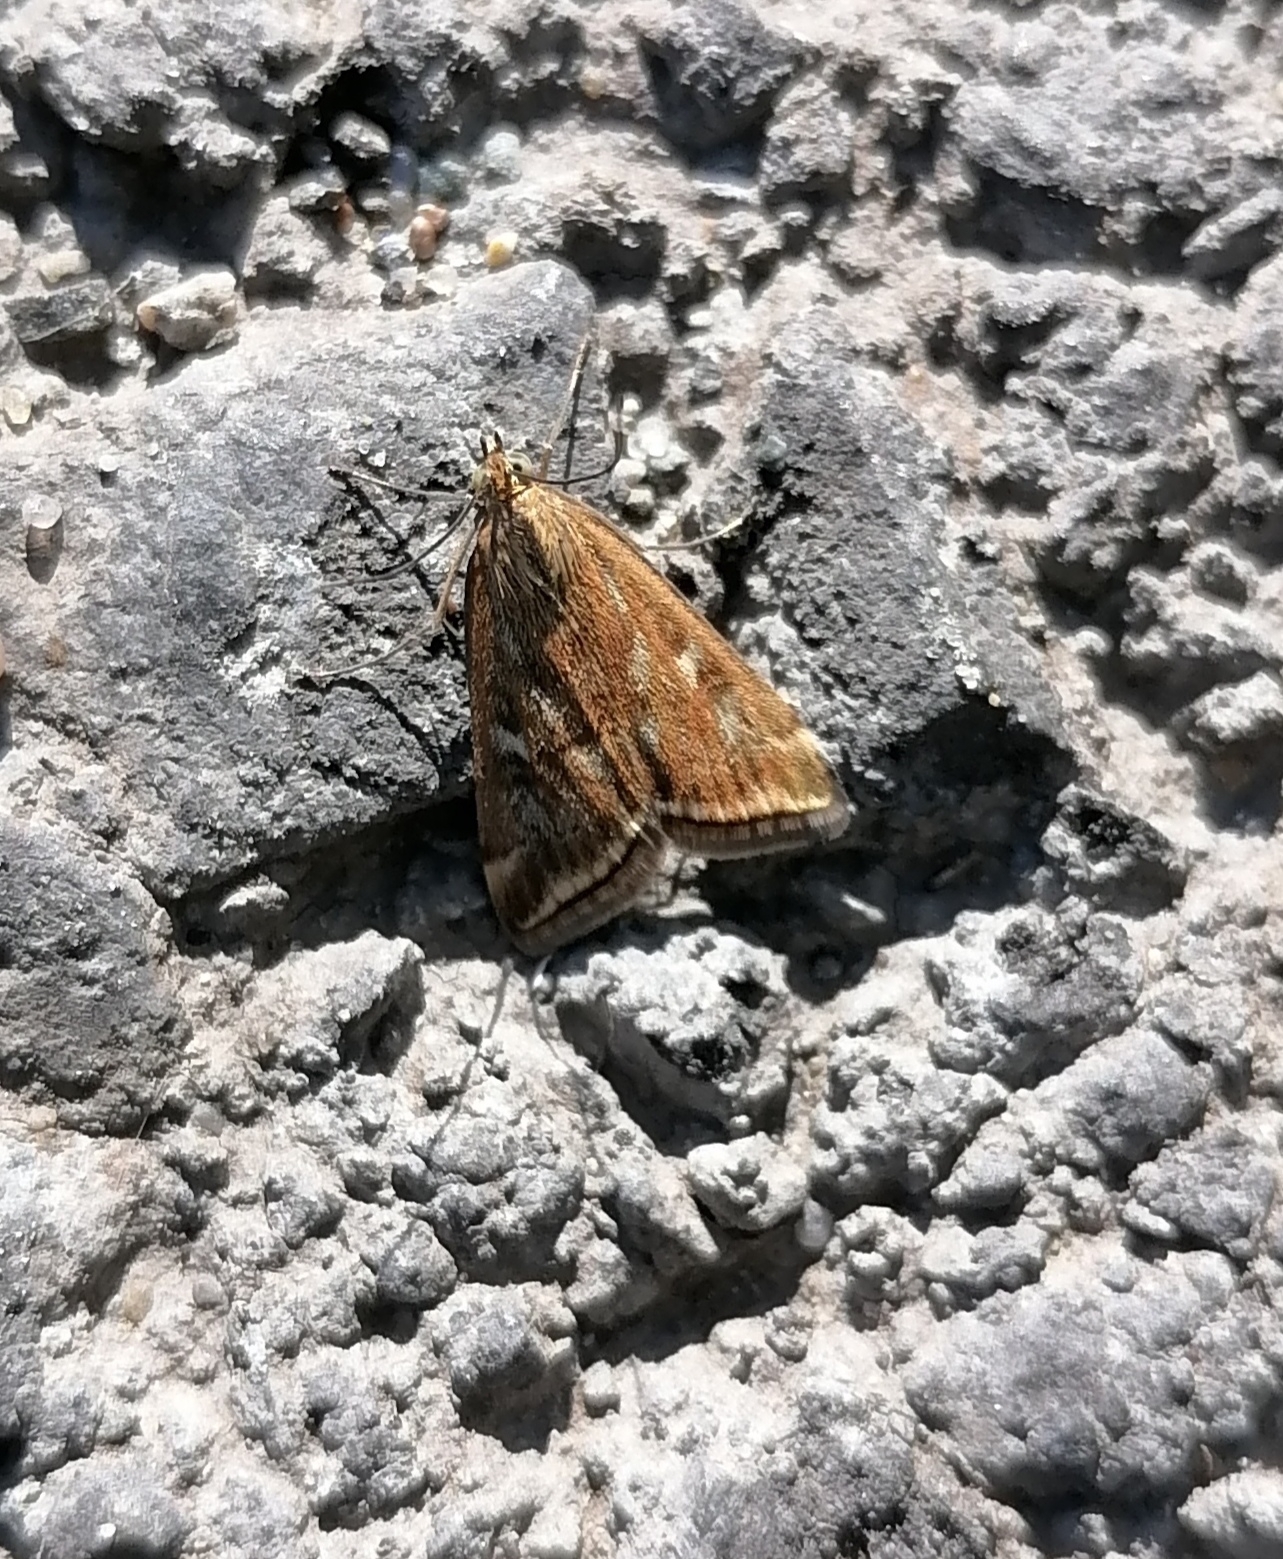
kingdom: Animalia
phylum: Arthropoda
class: Insecta
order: Lepidoptera
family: Crambidae
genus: Loxostege
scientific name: Loxostege sticticalis
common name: Crambid moth
